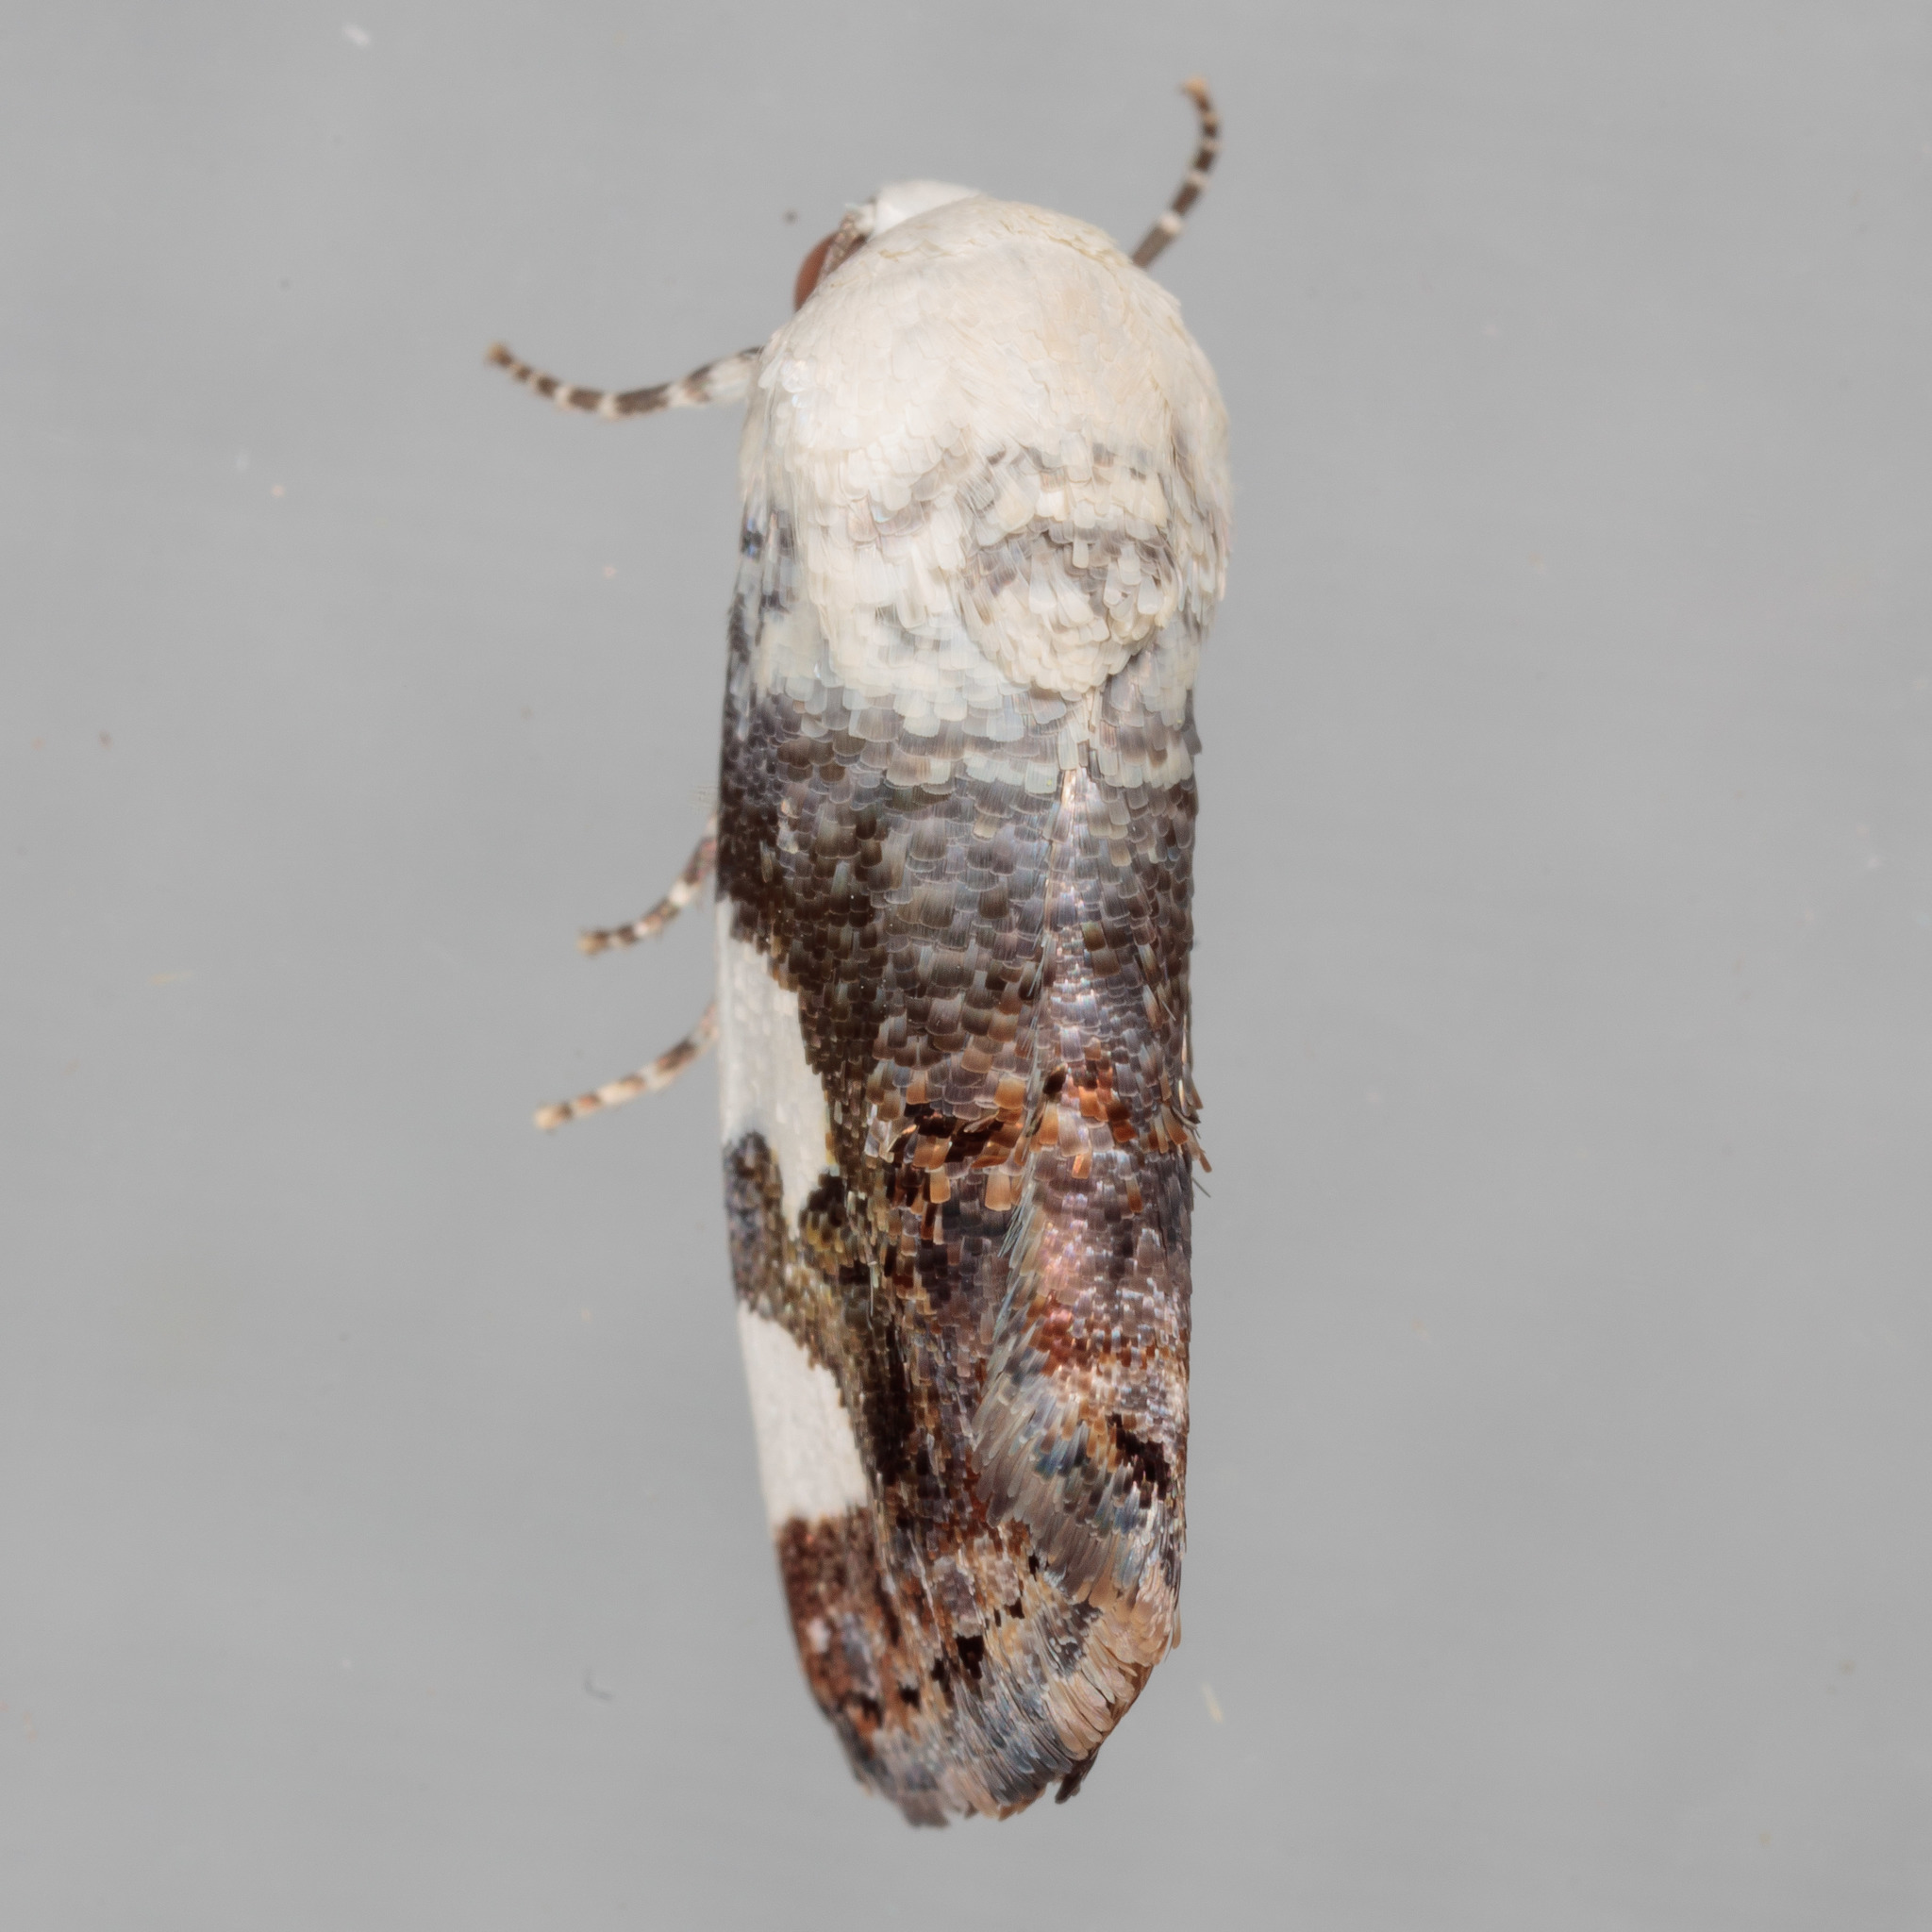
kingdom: Animalia
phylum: Arthropoda
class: Insecta
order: Lepidoptera
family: Noctuidae
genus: Acontia
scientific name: Acontia quadriplaga
